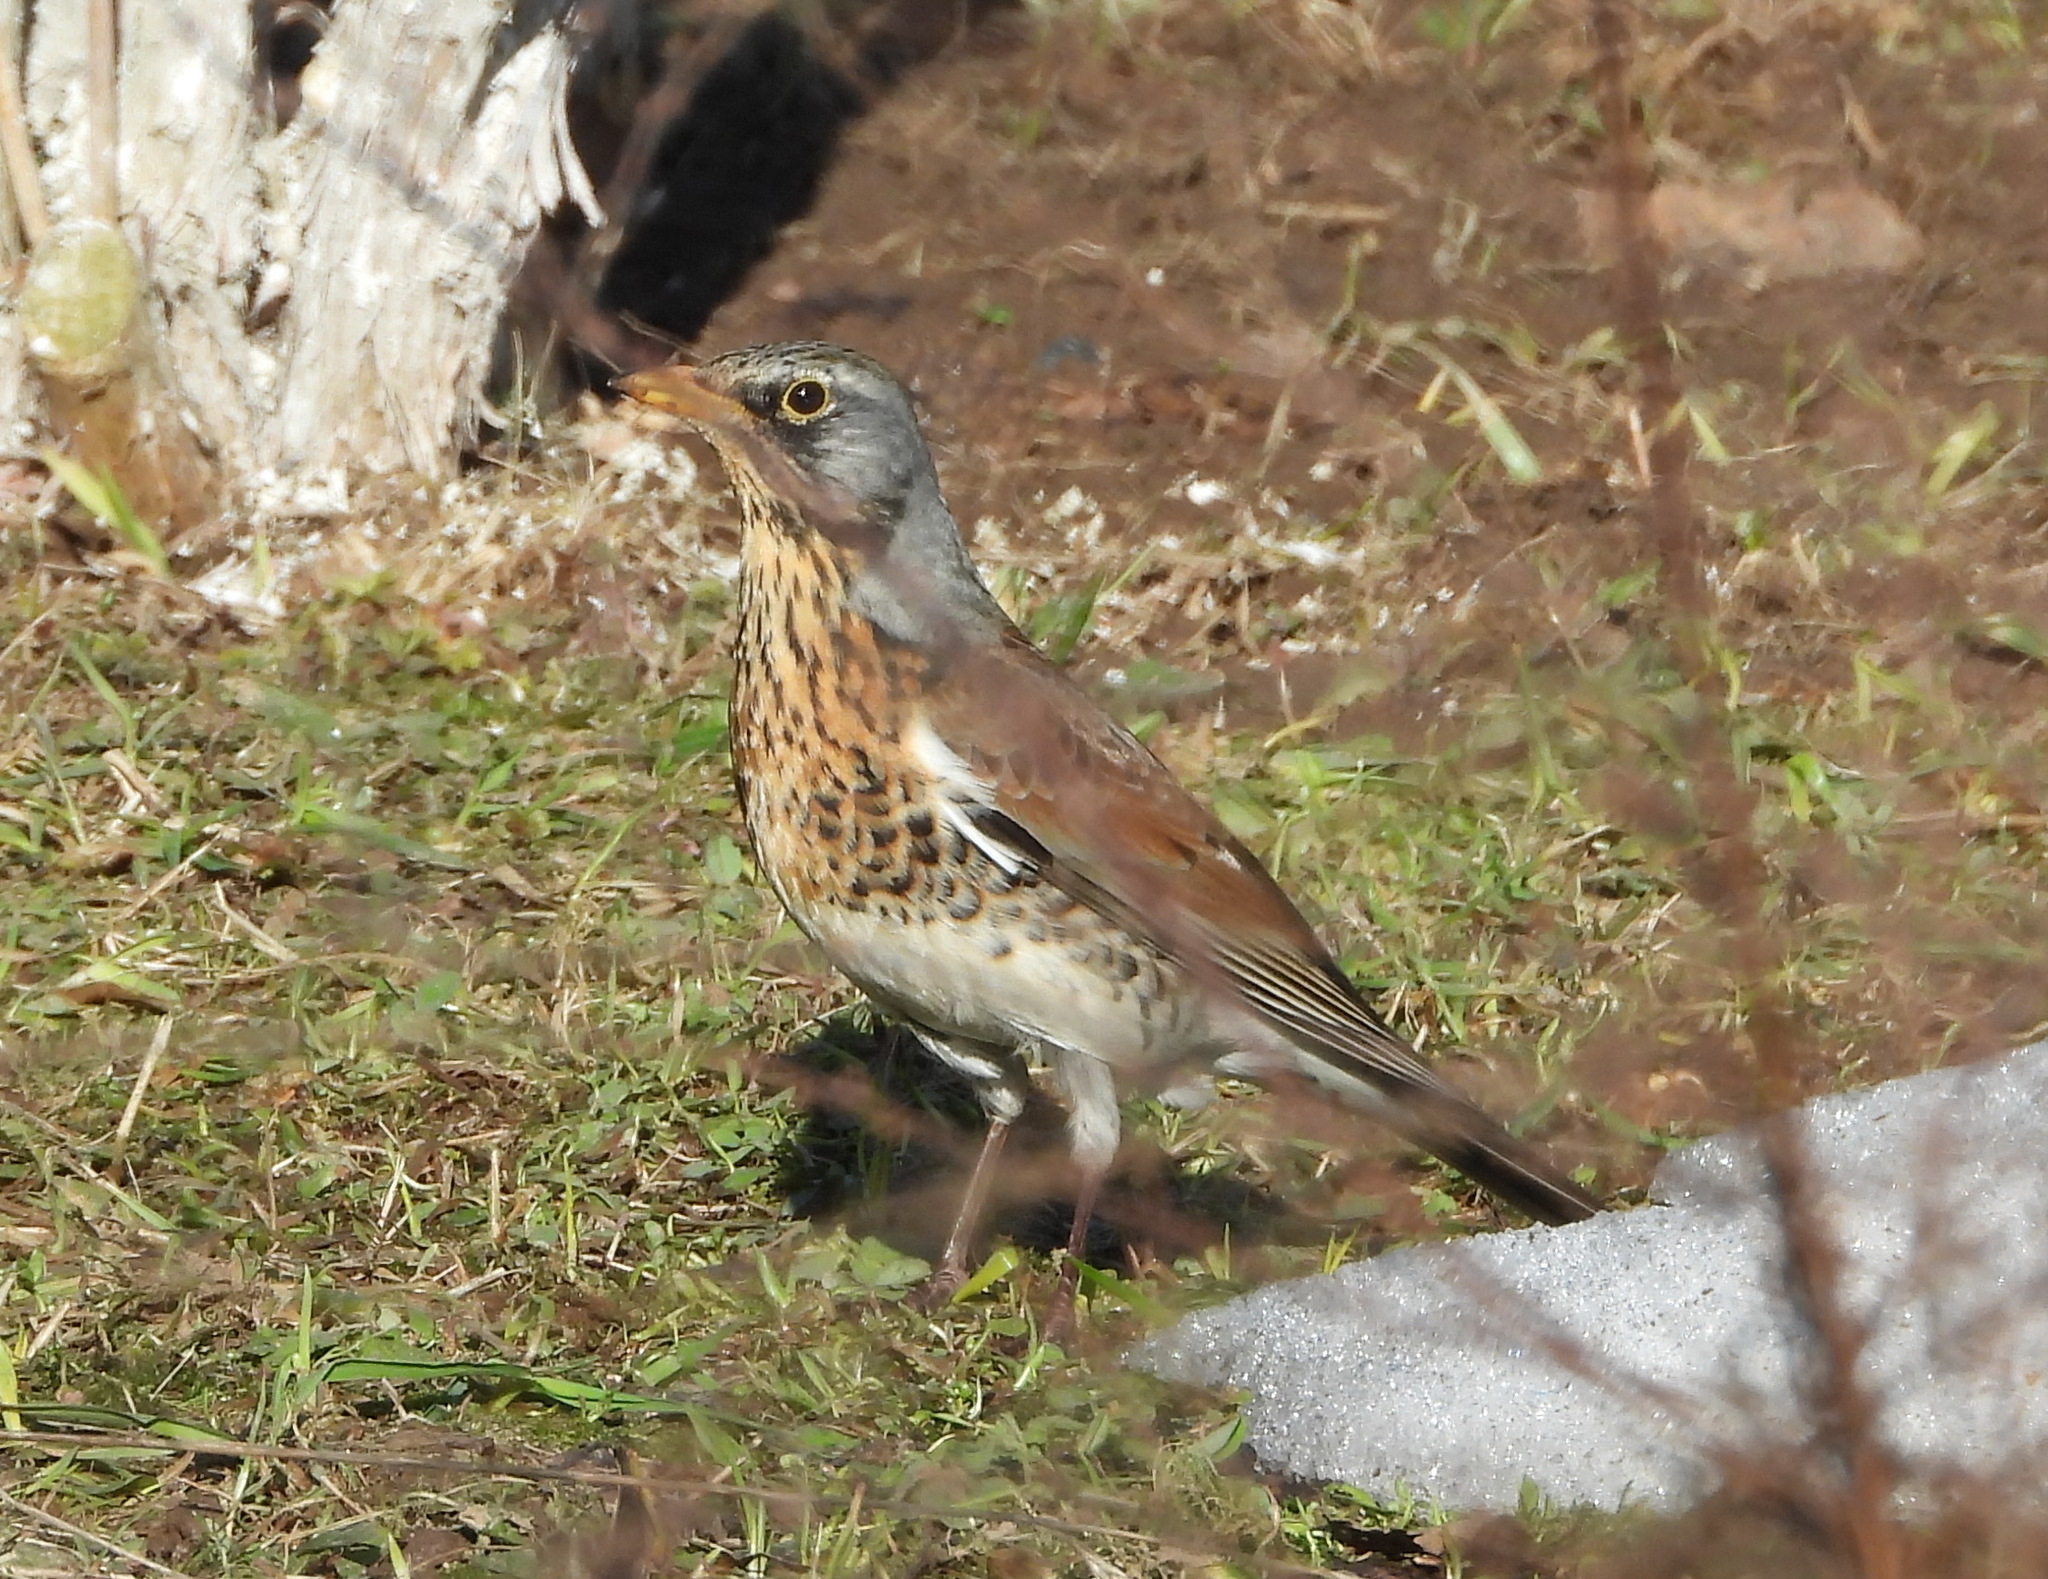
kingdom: Animalia
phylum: Chordata
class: Aves
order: Passeriformes
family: Turdidae
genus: Turdus
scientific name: Turdus pilaris
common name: Fieldfare
